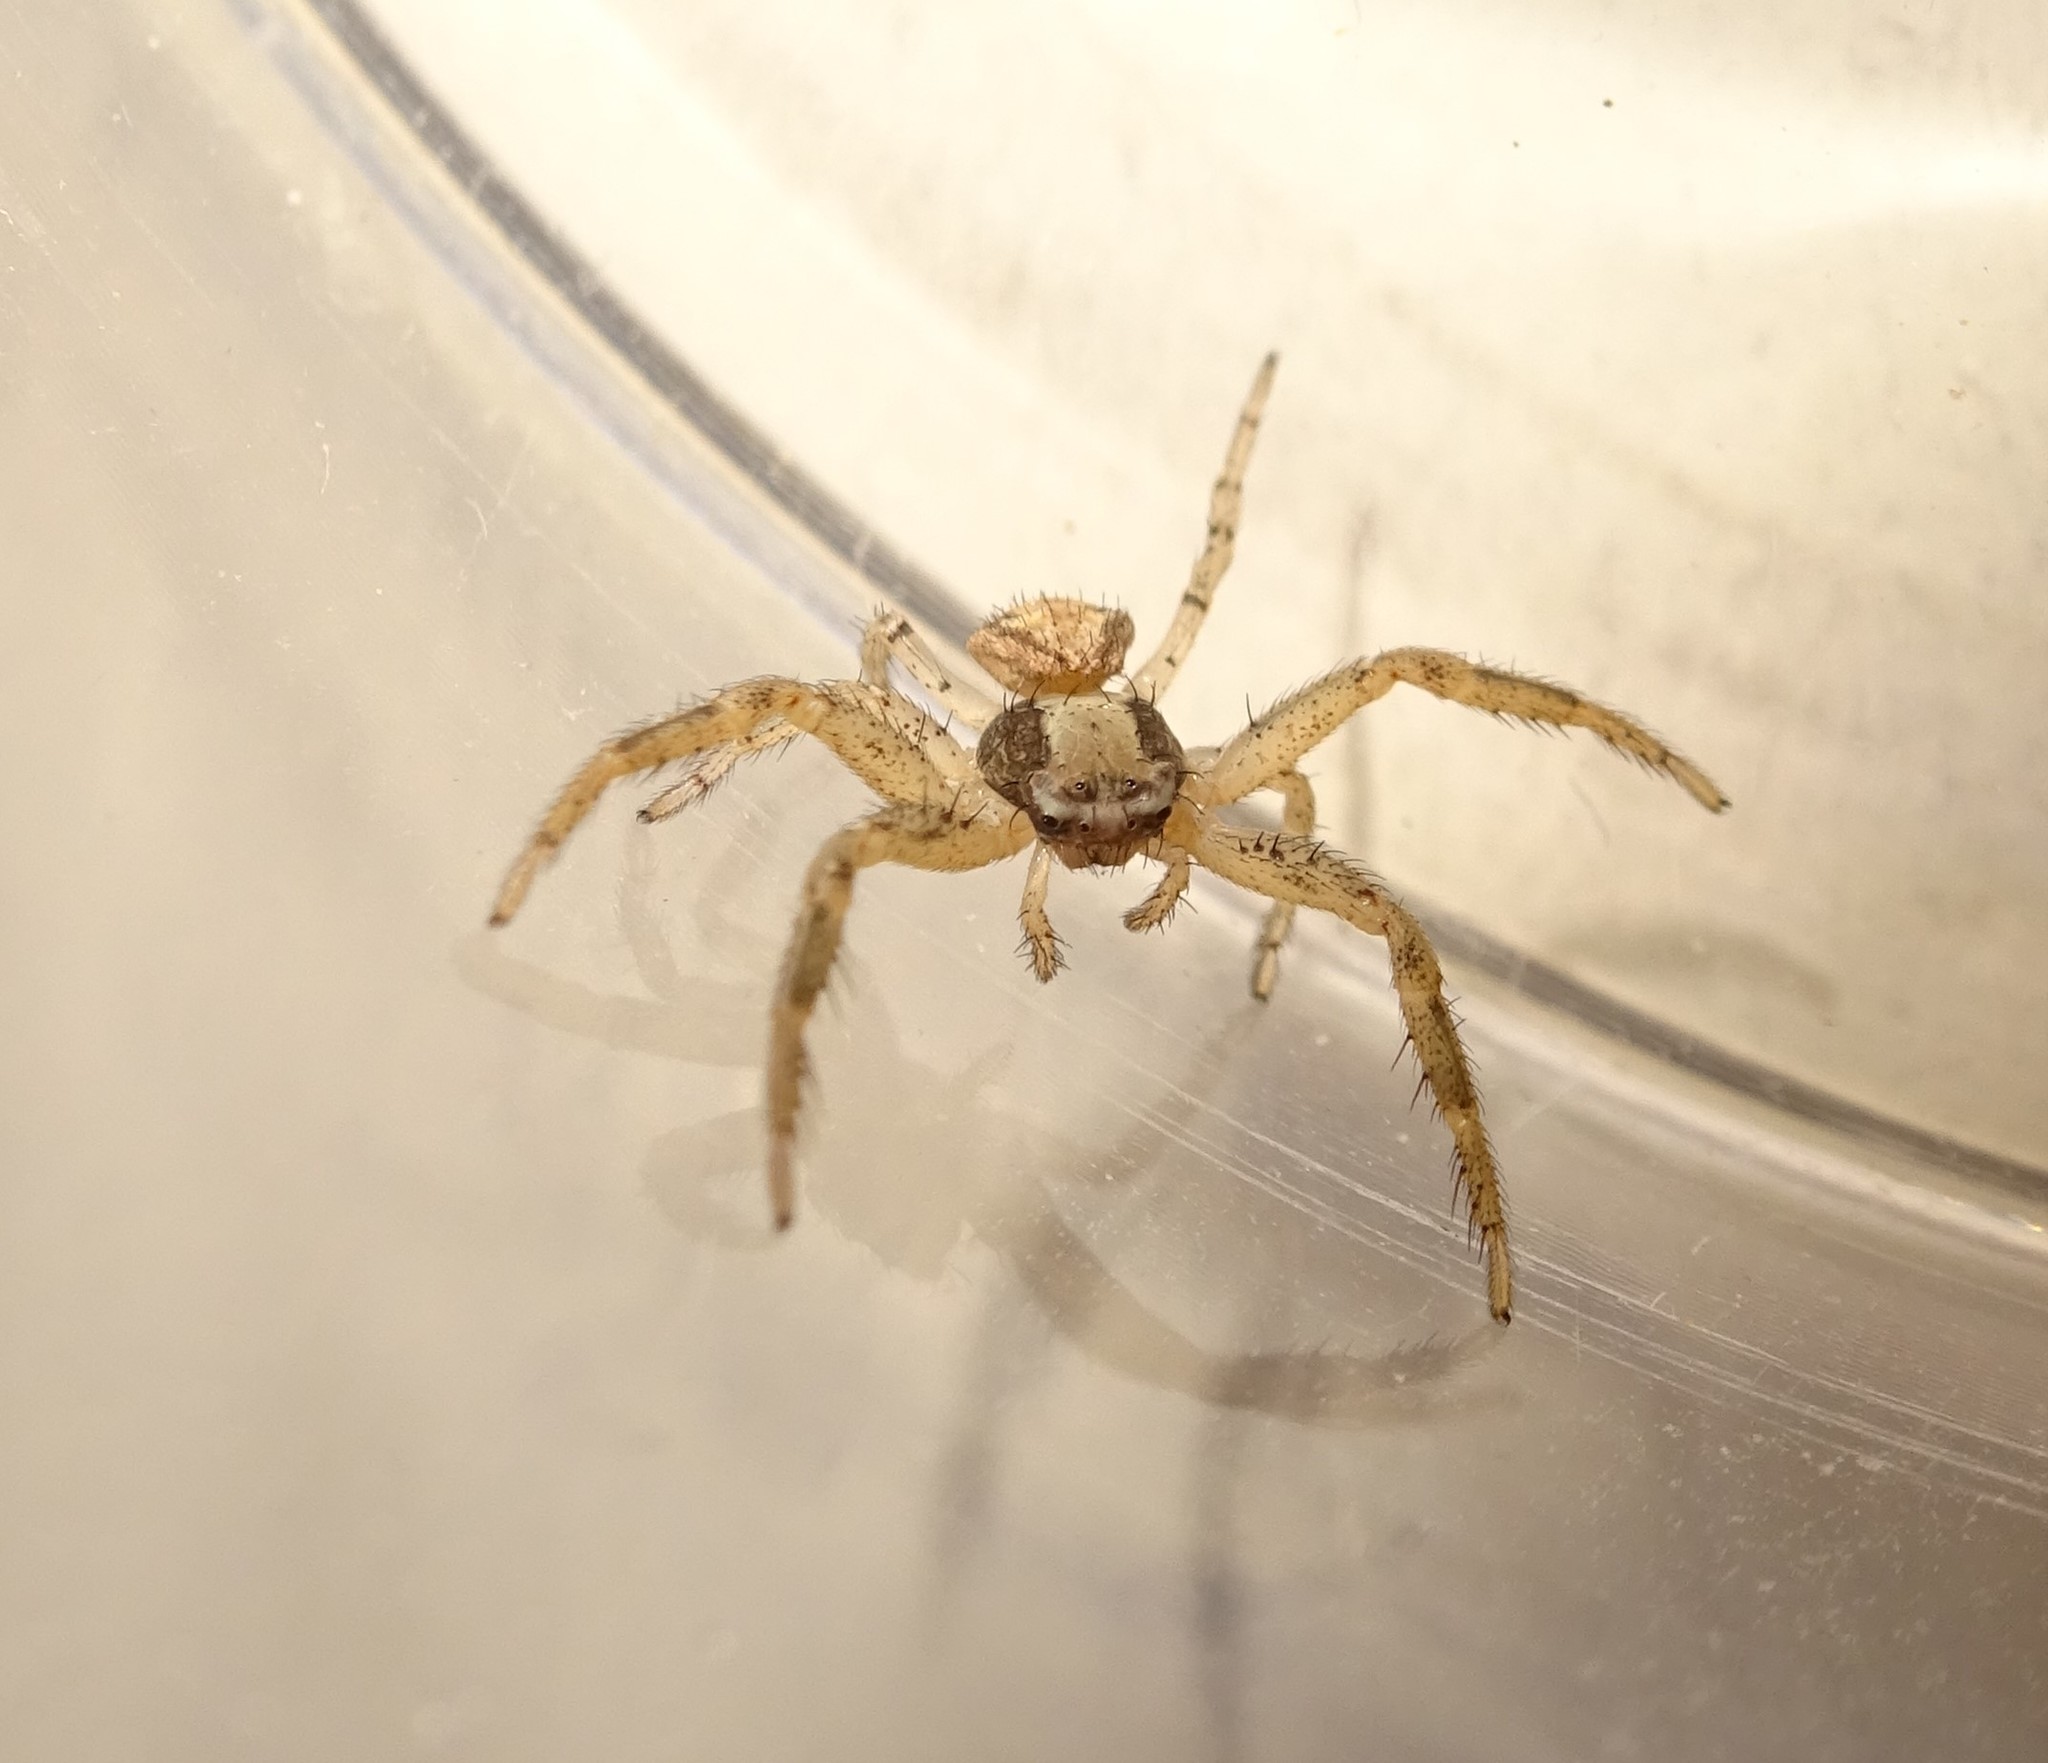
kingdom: Animalia
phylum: Arthropoda
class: Arachnida
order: Araneae
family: Thomisidae
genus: Xysticus
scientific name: Xysticus
